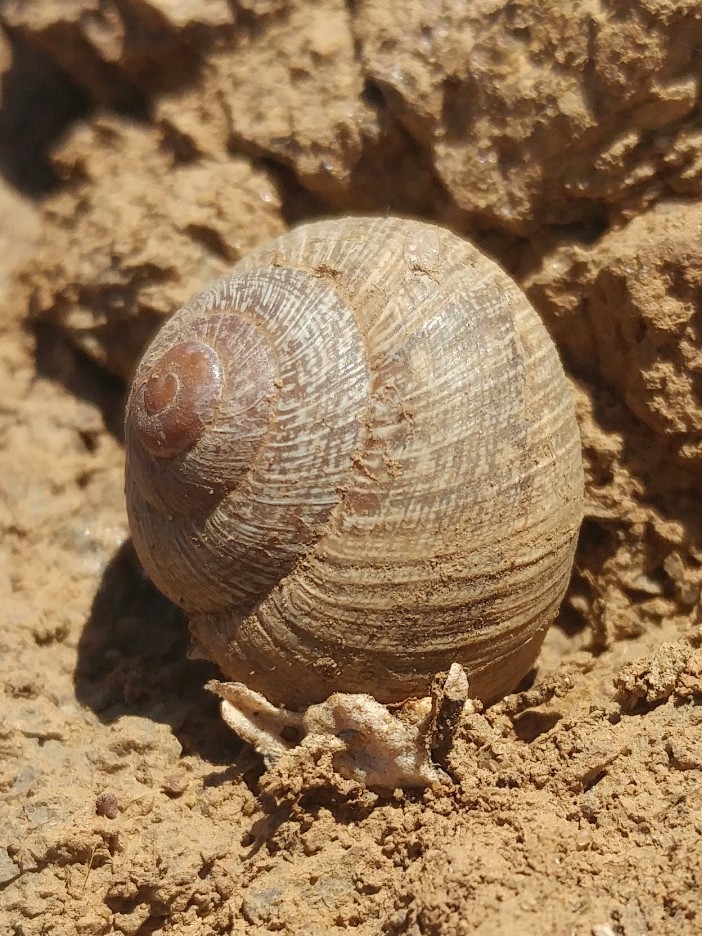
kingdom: Animalia
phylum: Mollusca
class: Gastropoda
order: Stylommatophora
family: Xanthonychidae
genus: Xerarionta
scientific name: Xerarionta intercisa
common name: Plain cactus snail
